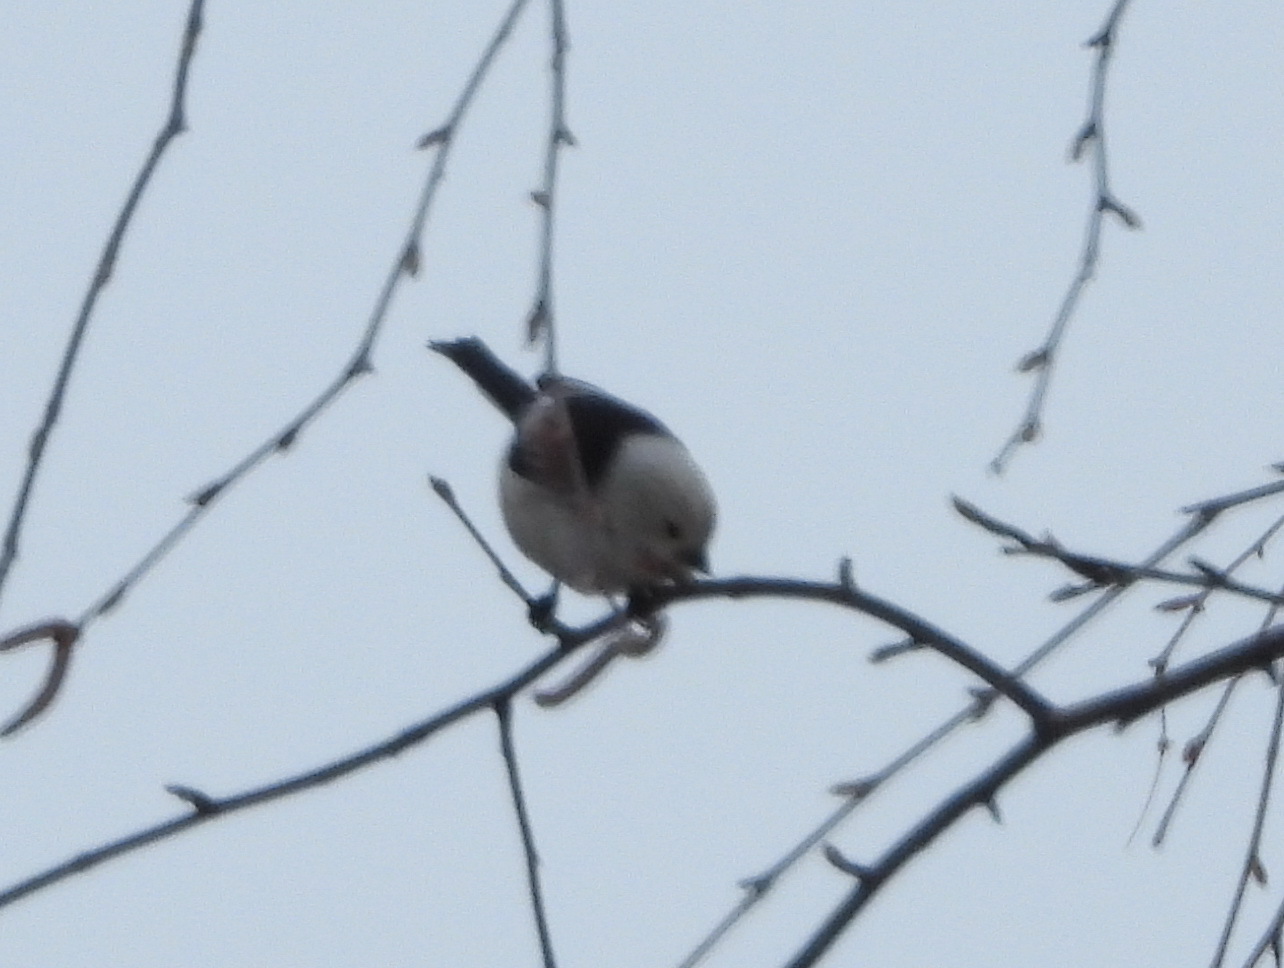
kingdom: Animalia
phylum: Chordata
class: Aves
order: Passeriformes
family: Aegithalidae
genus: Aegithalos
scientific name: Aegithalos caudatus
